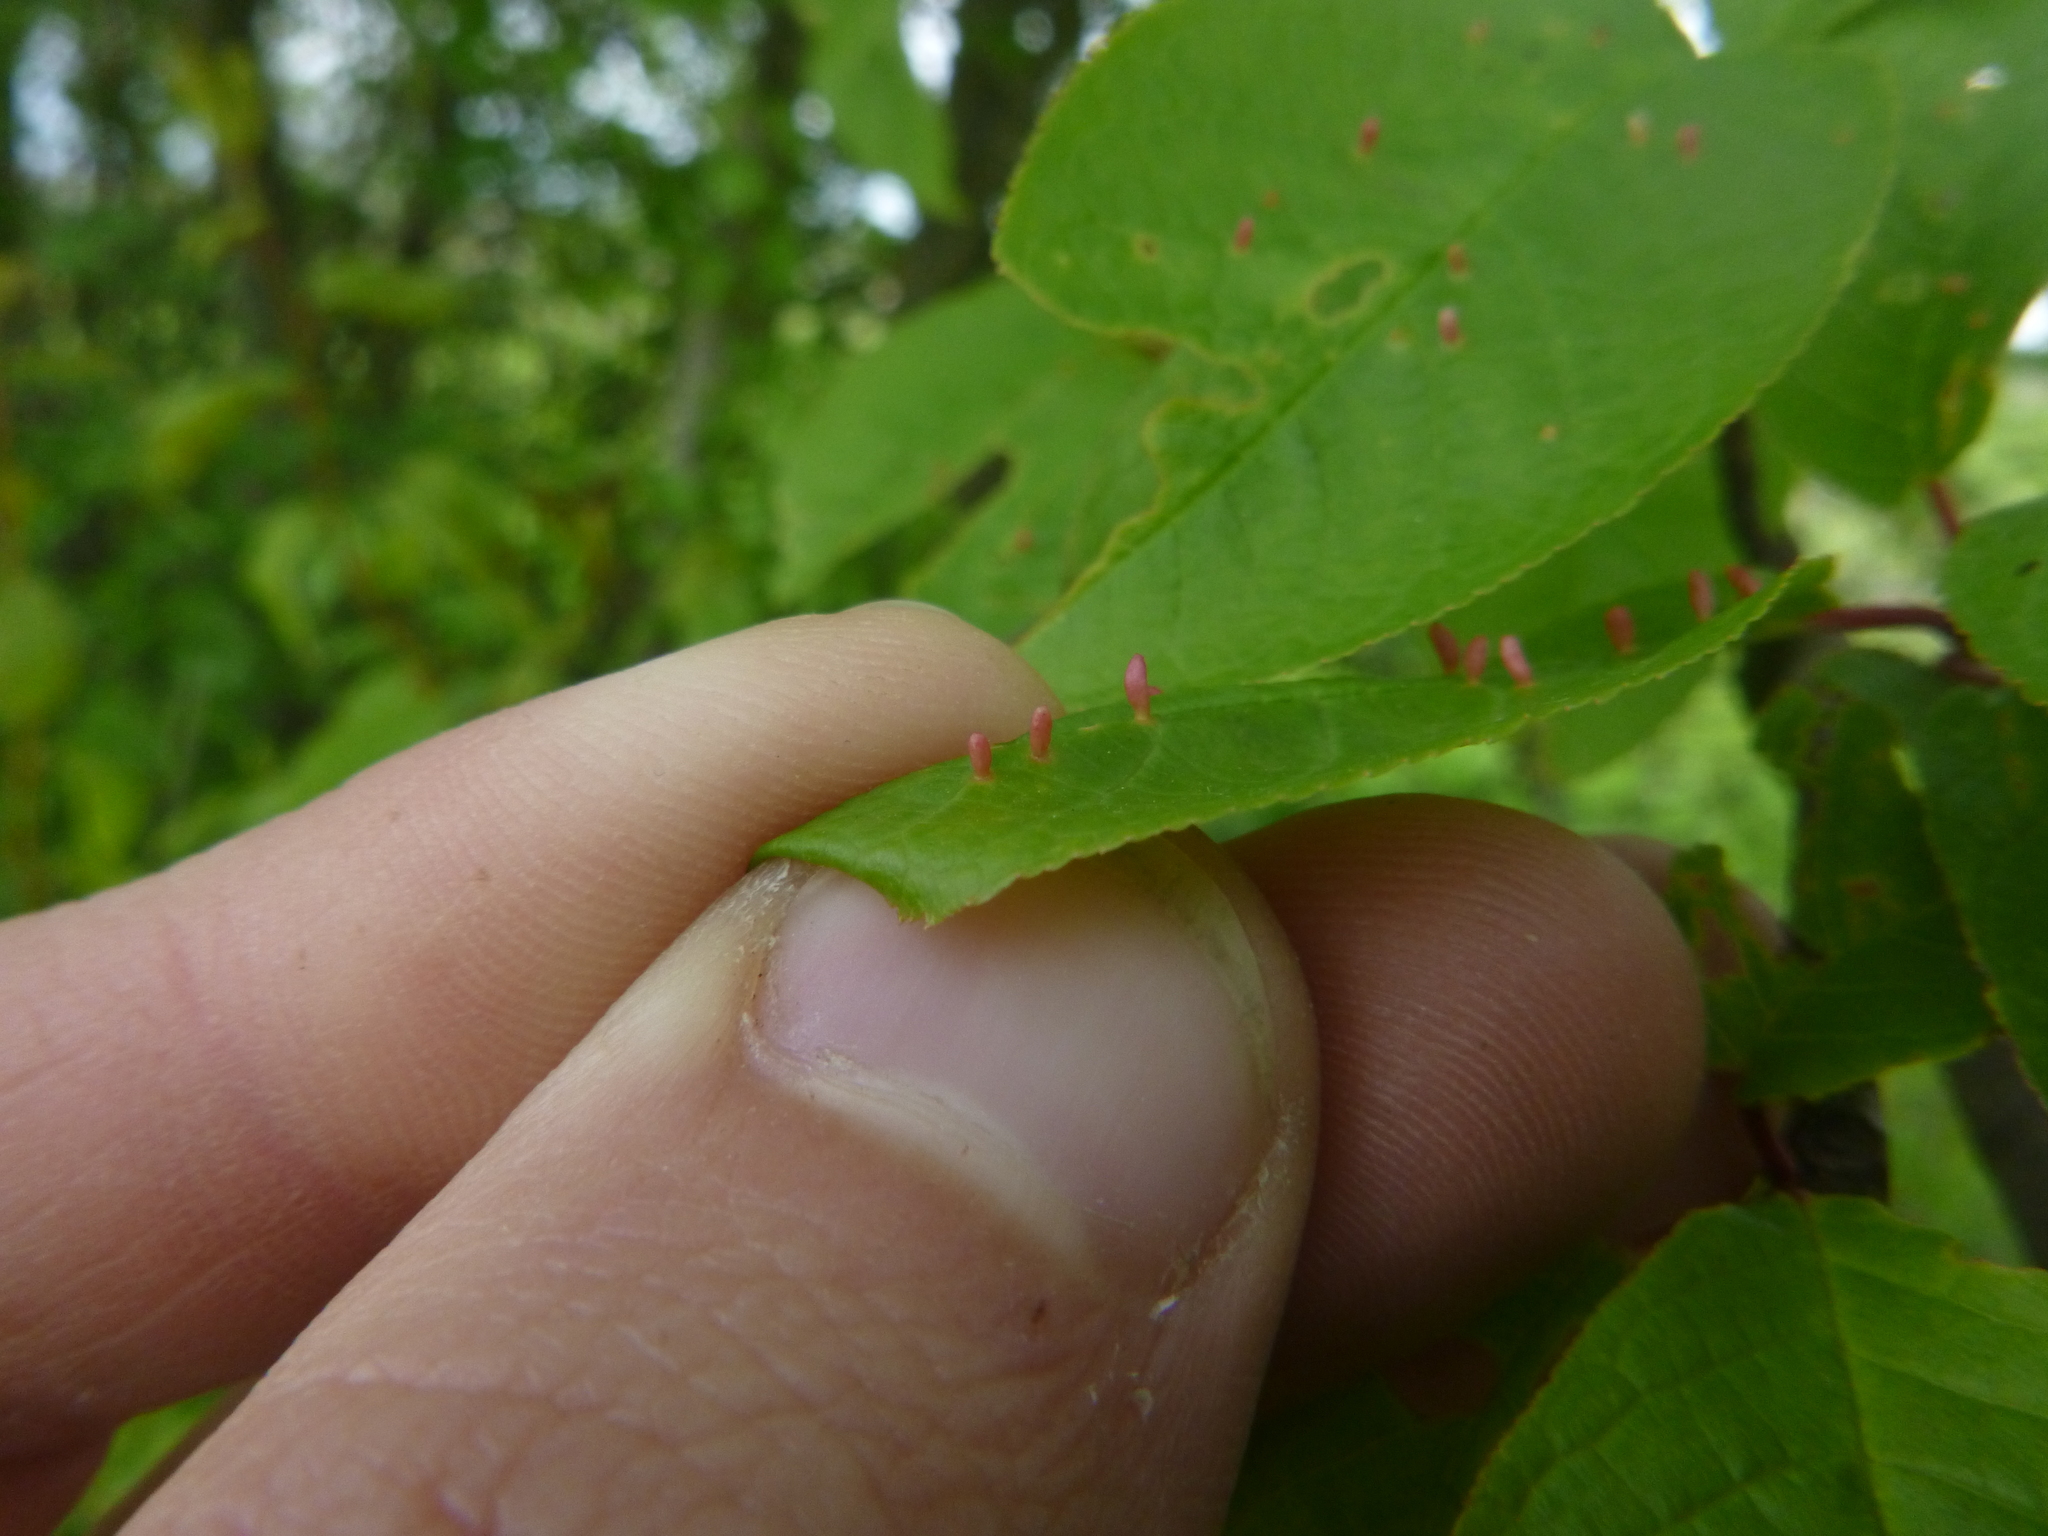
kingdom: Animalia
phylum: Arthropoda
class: Arachnida
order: Trombidiformes
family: Eriophyidae
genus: Phyllocoptes
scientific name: Phyllocoptes eupadi
